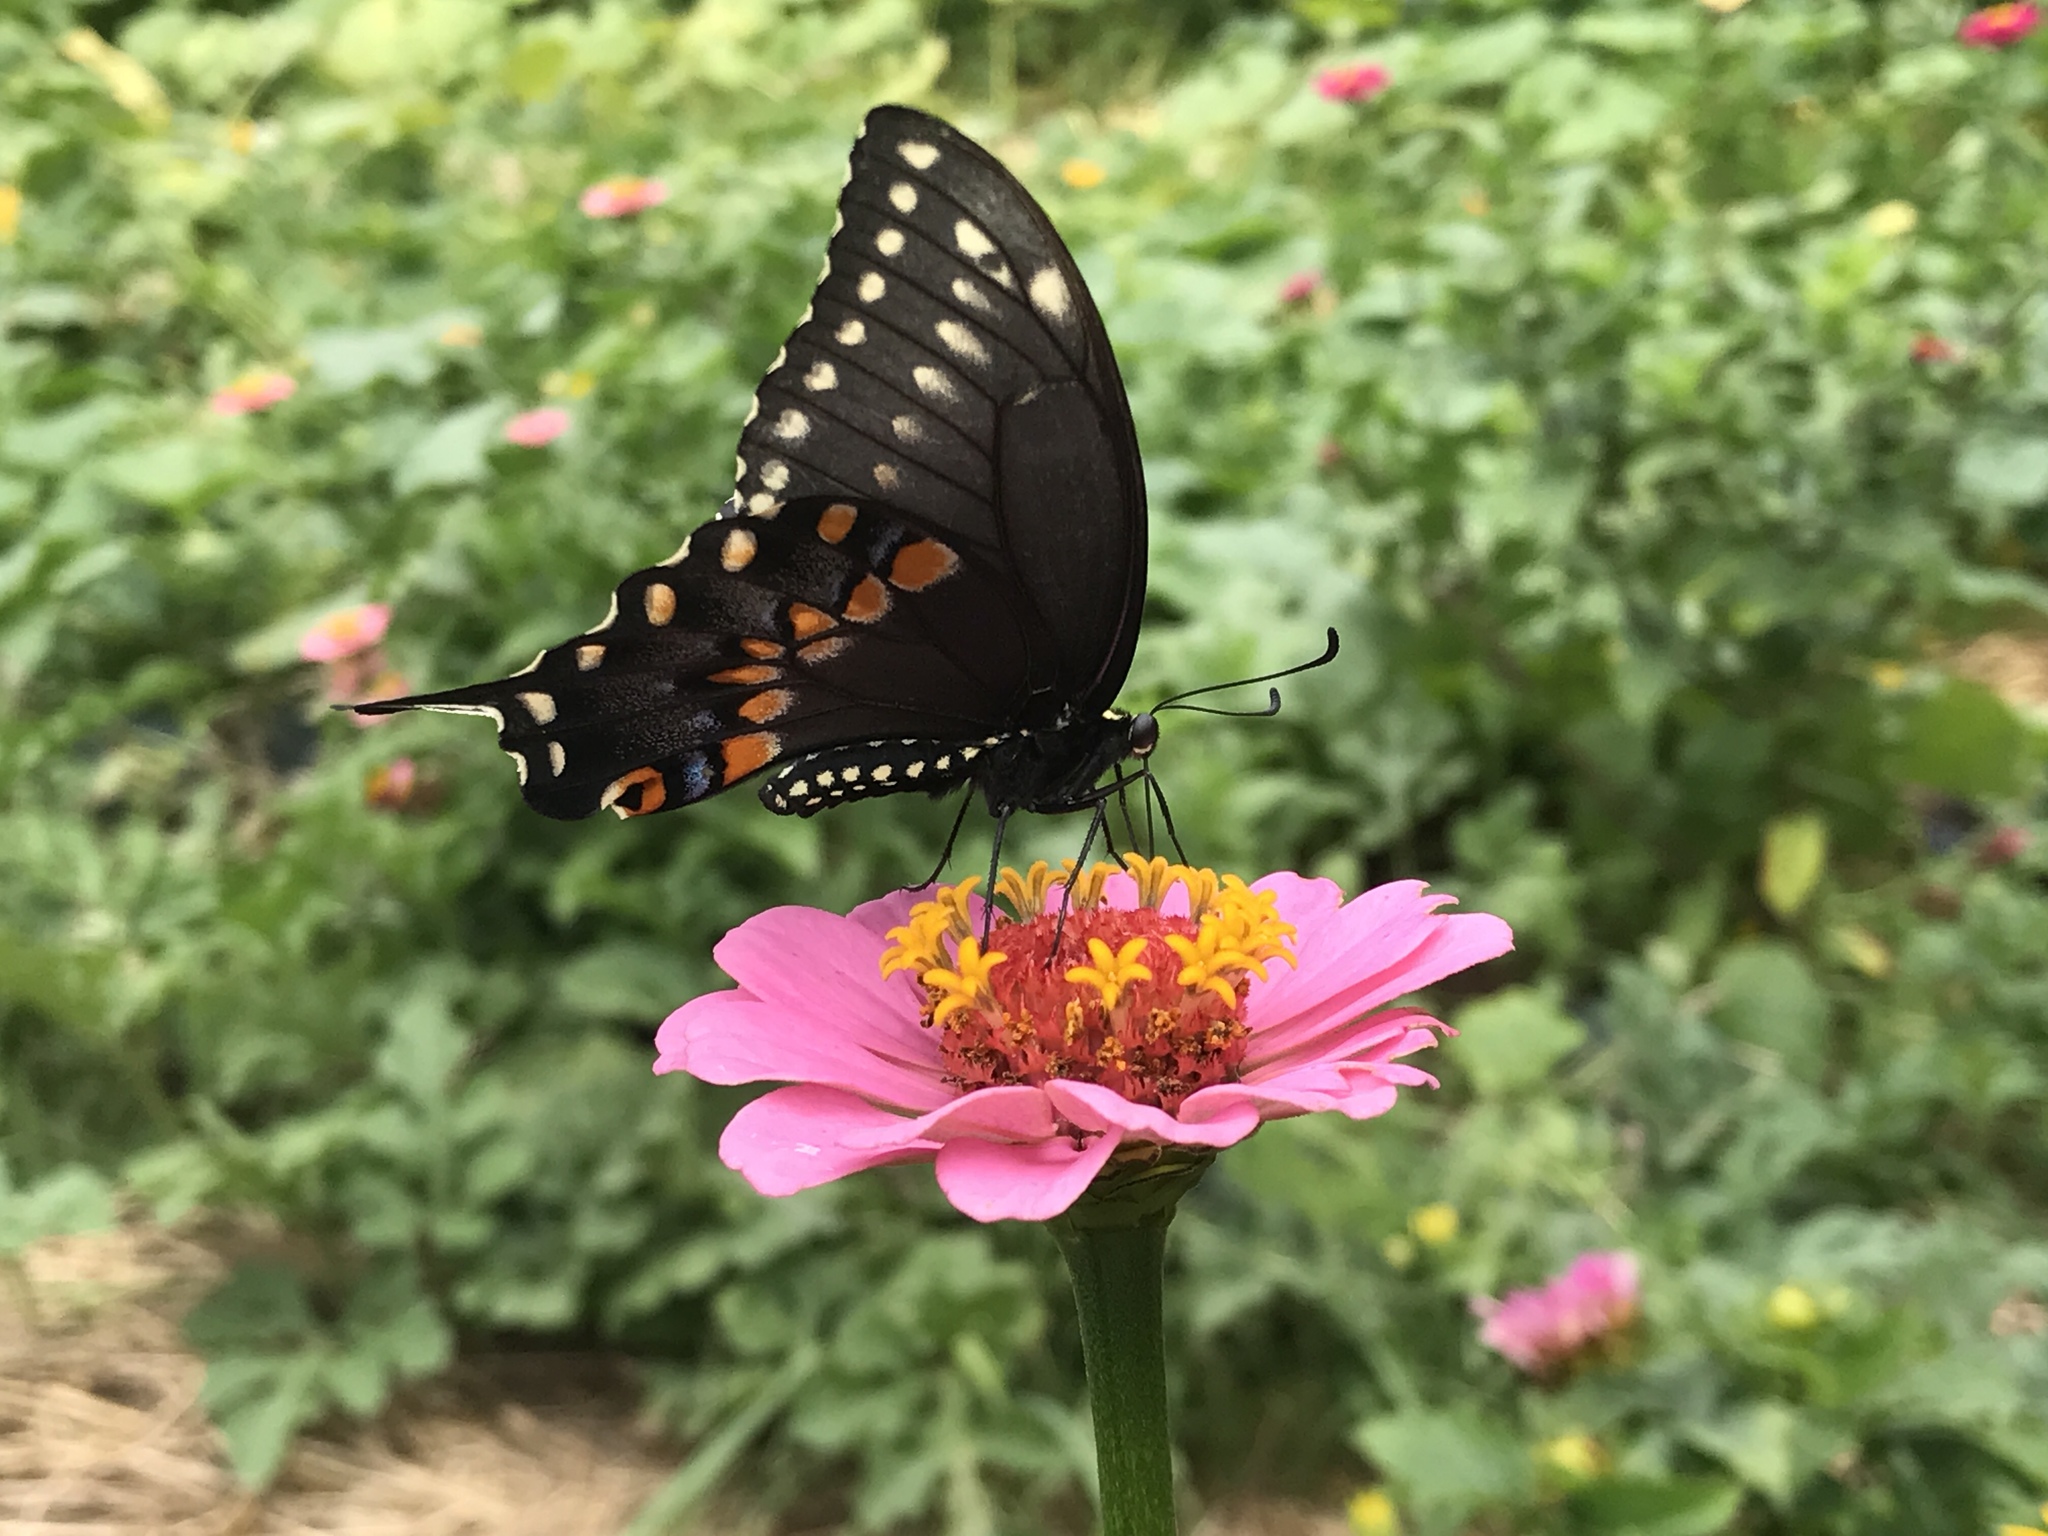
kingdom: Animalia
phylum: Arthropoda
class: Insecta
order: Lepidoptera
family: Papilionidae
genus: Papilio
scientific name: Papilio polyxenes
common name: Black swallowtail
